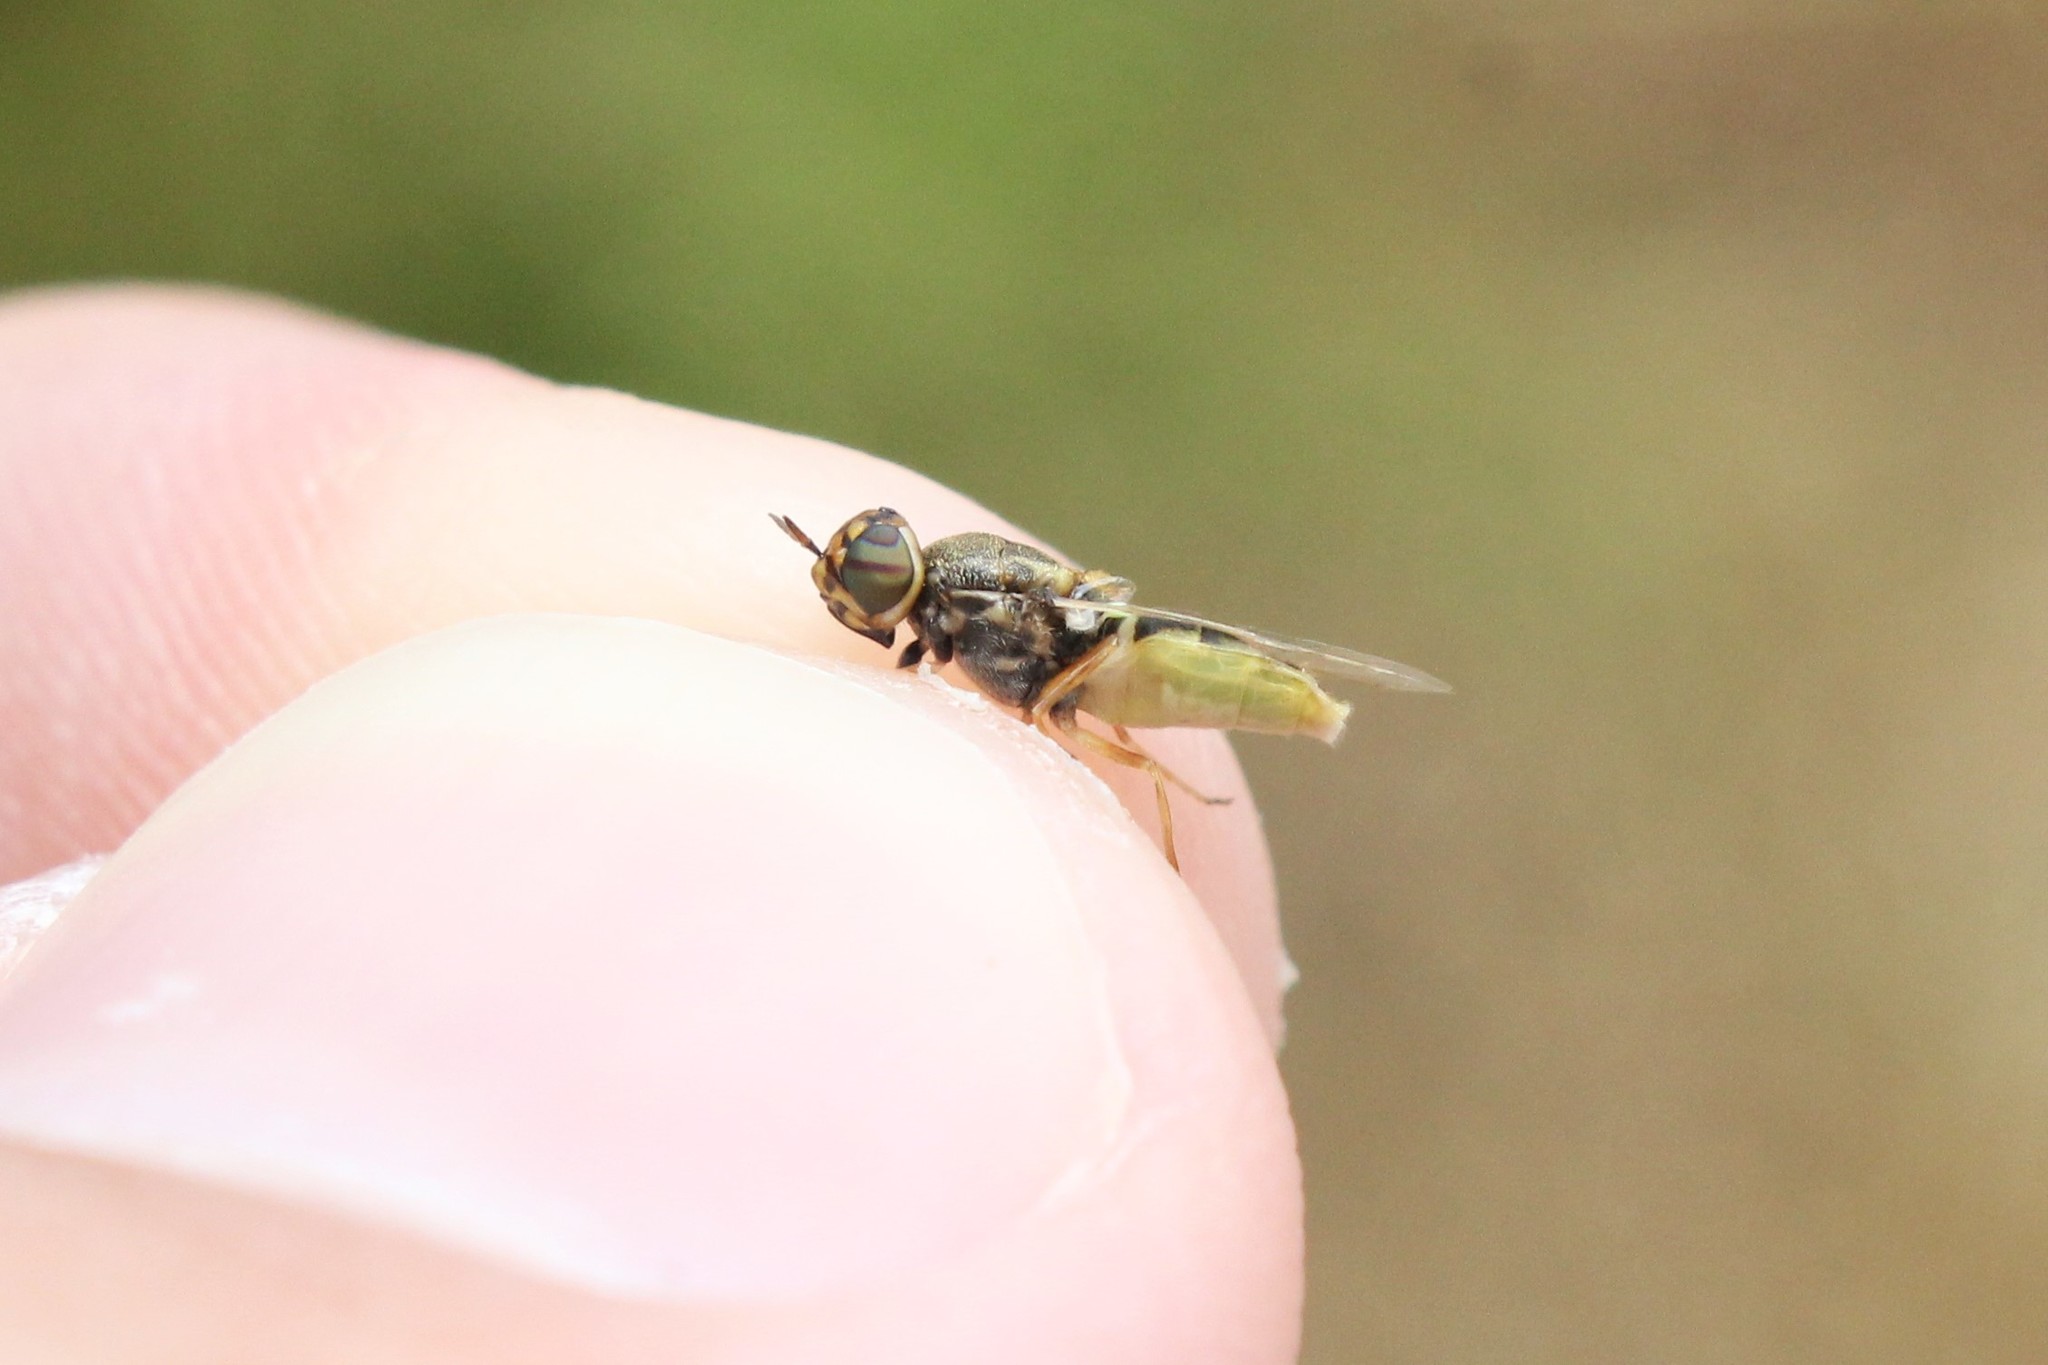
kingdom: Animalia
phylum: Arthropoda
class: Insecta
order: Diptera
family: Stratiomyidae
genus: Hedriodiscus
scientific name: Hedriodiscus vertebratus
